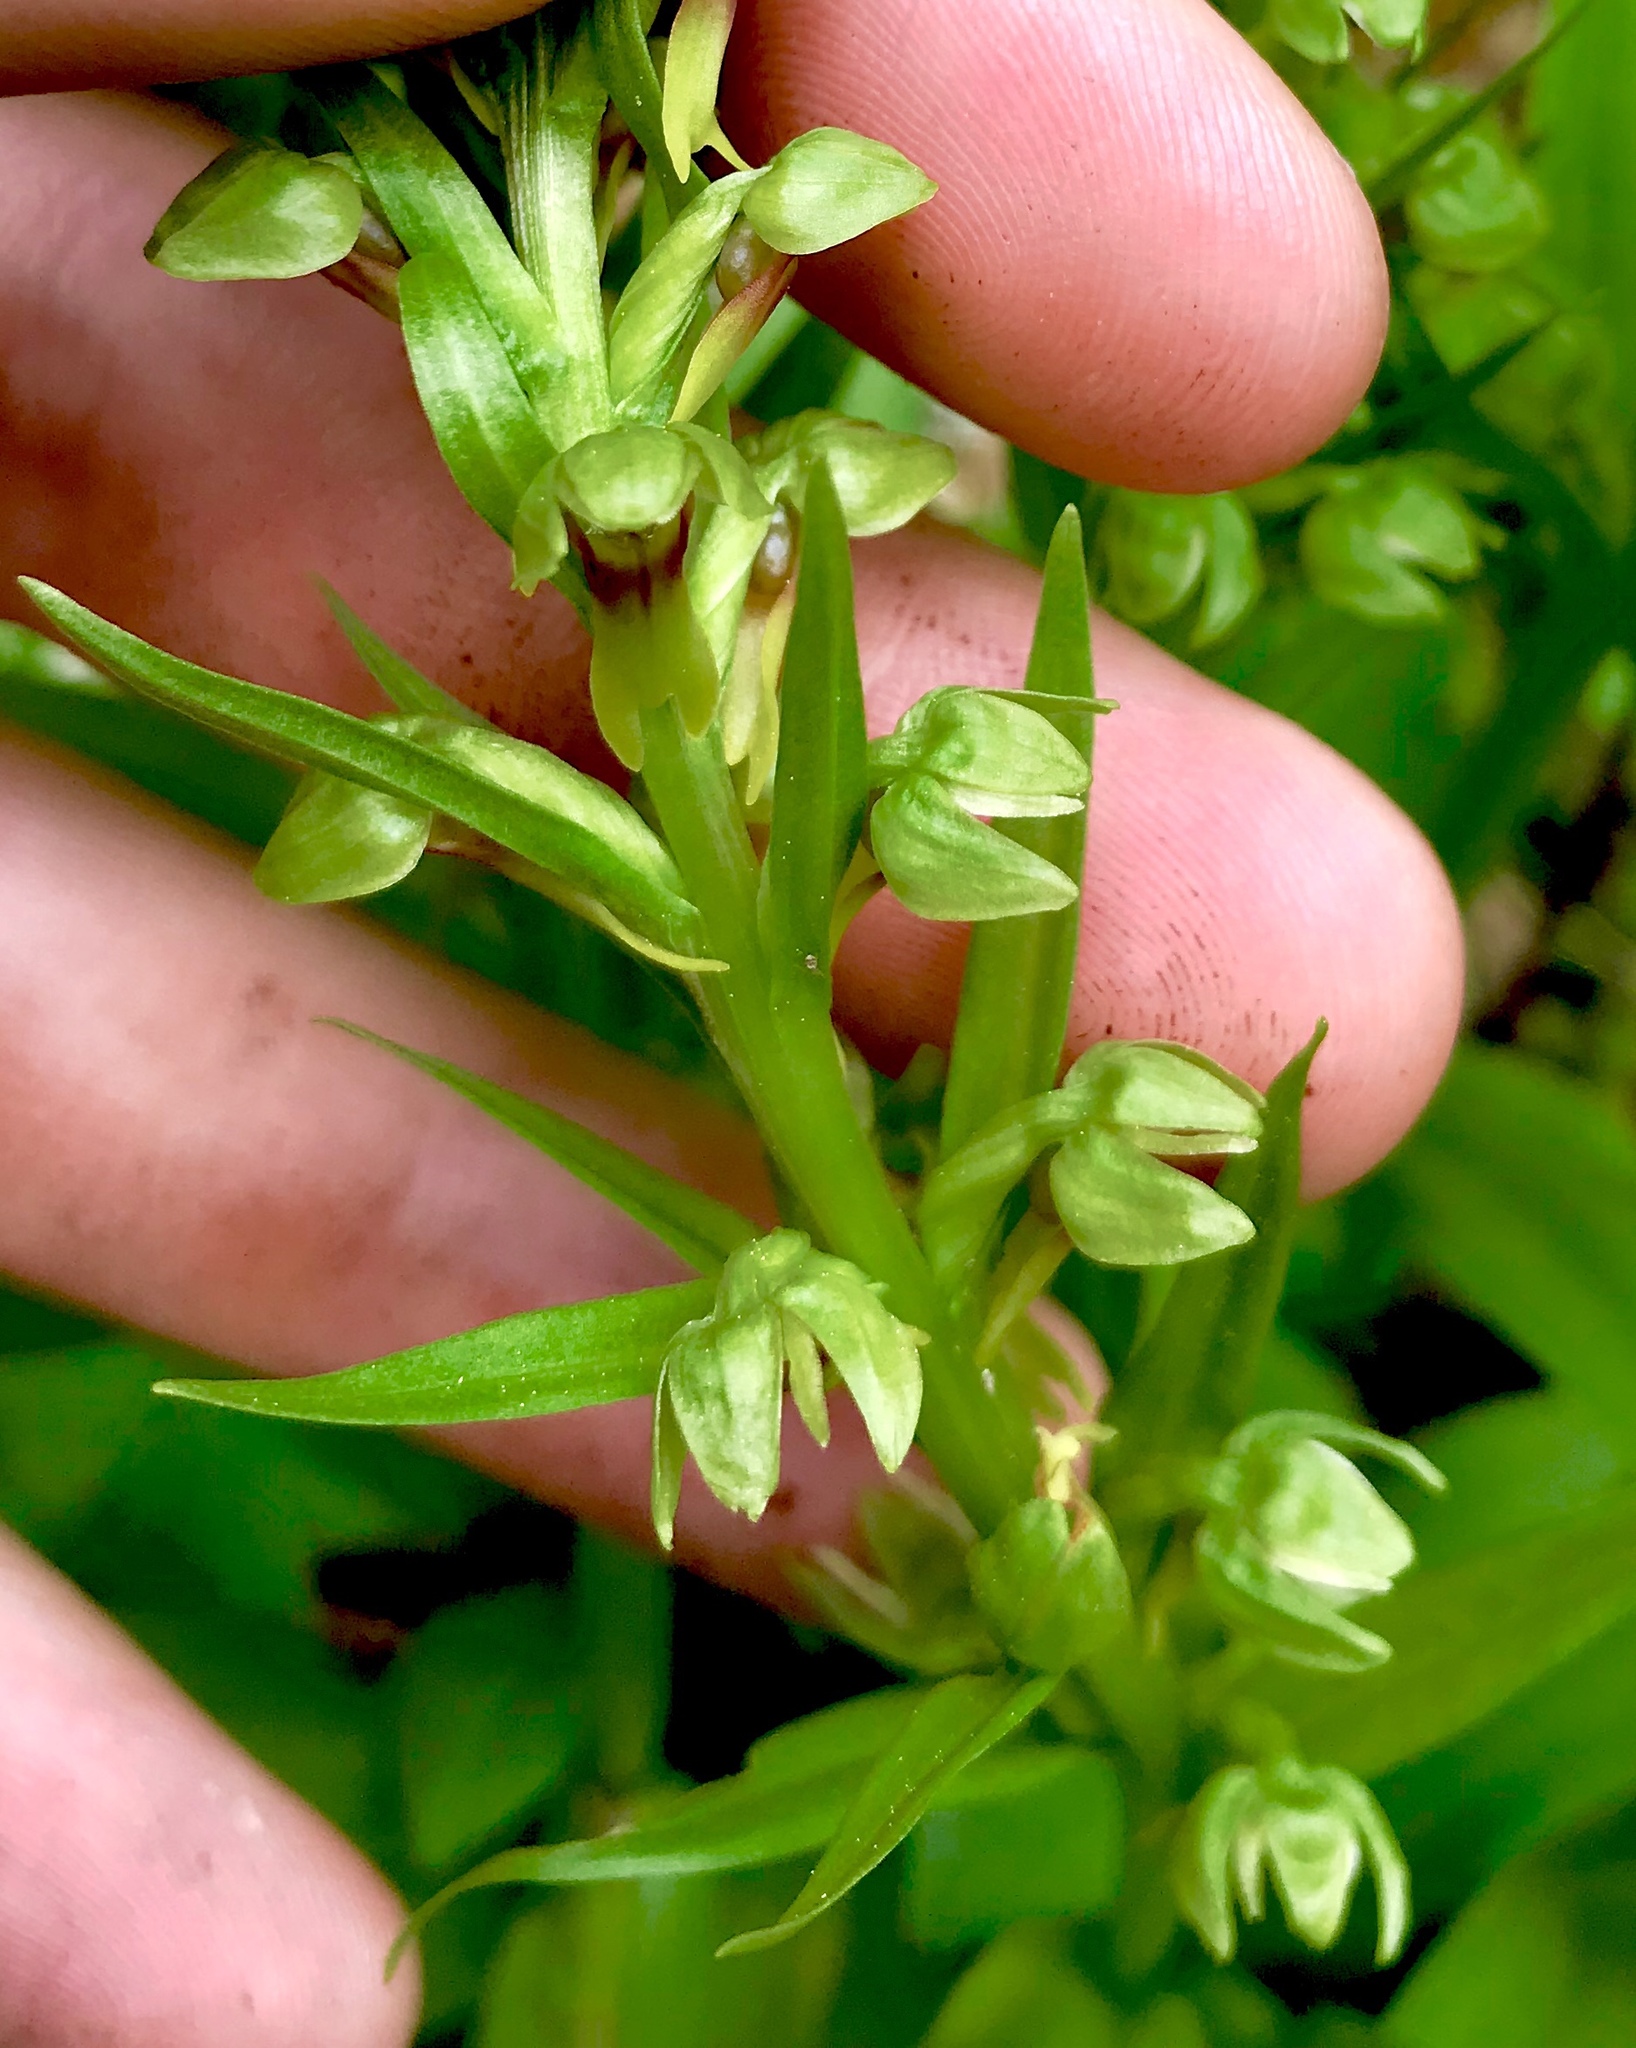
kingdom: Plantae
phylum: Tracheophyta
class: Liliopsida
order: Asparagales
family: Orchidaceae
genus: Dactylorhiza
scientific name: Dactylorhiza viridis
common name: Longbract frog orchid
